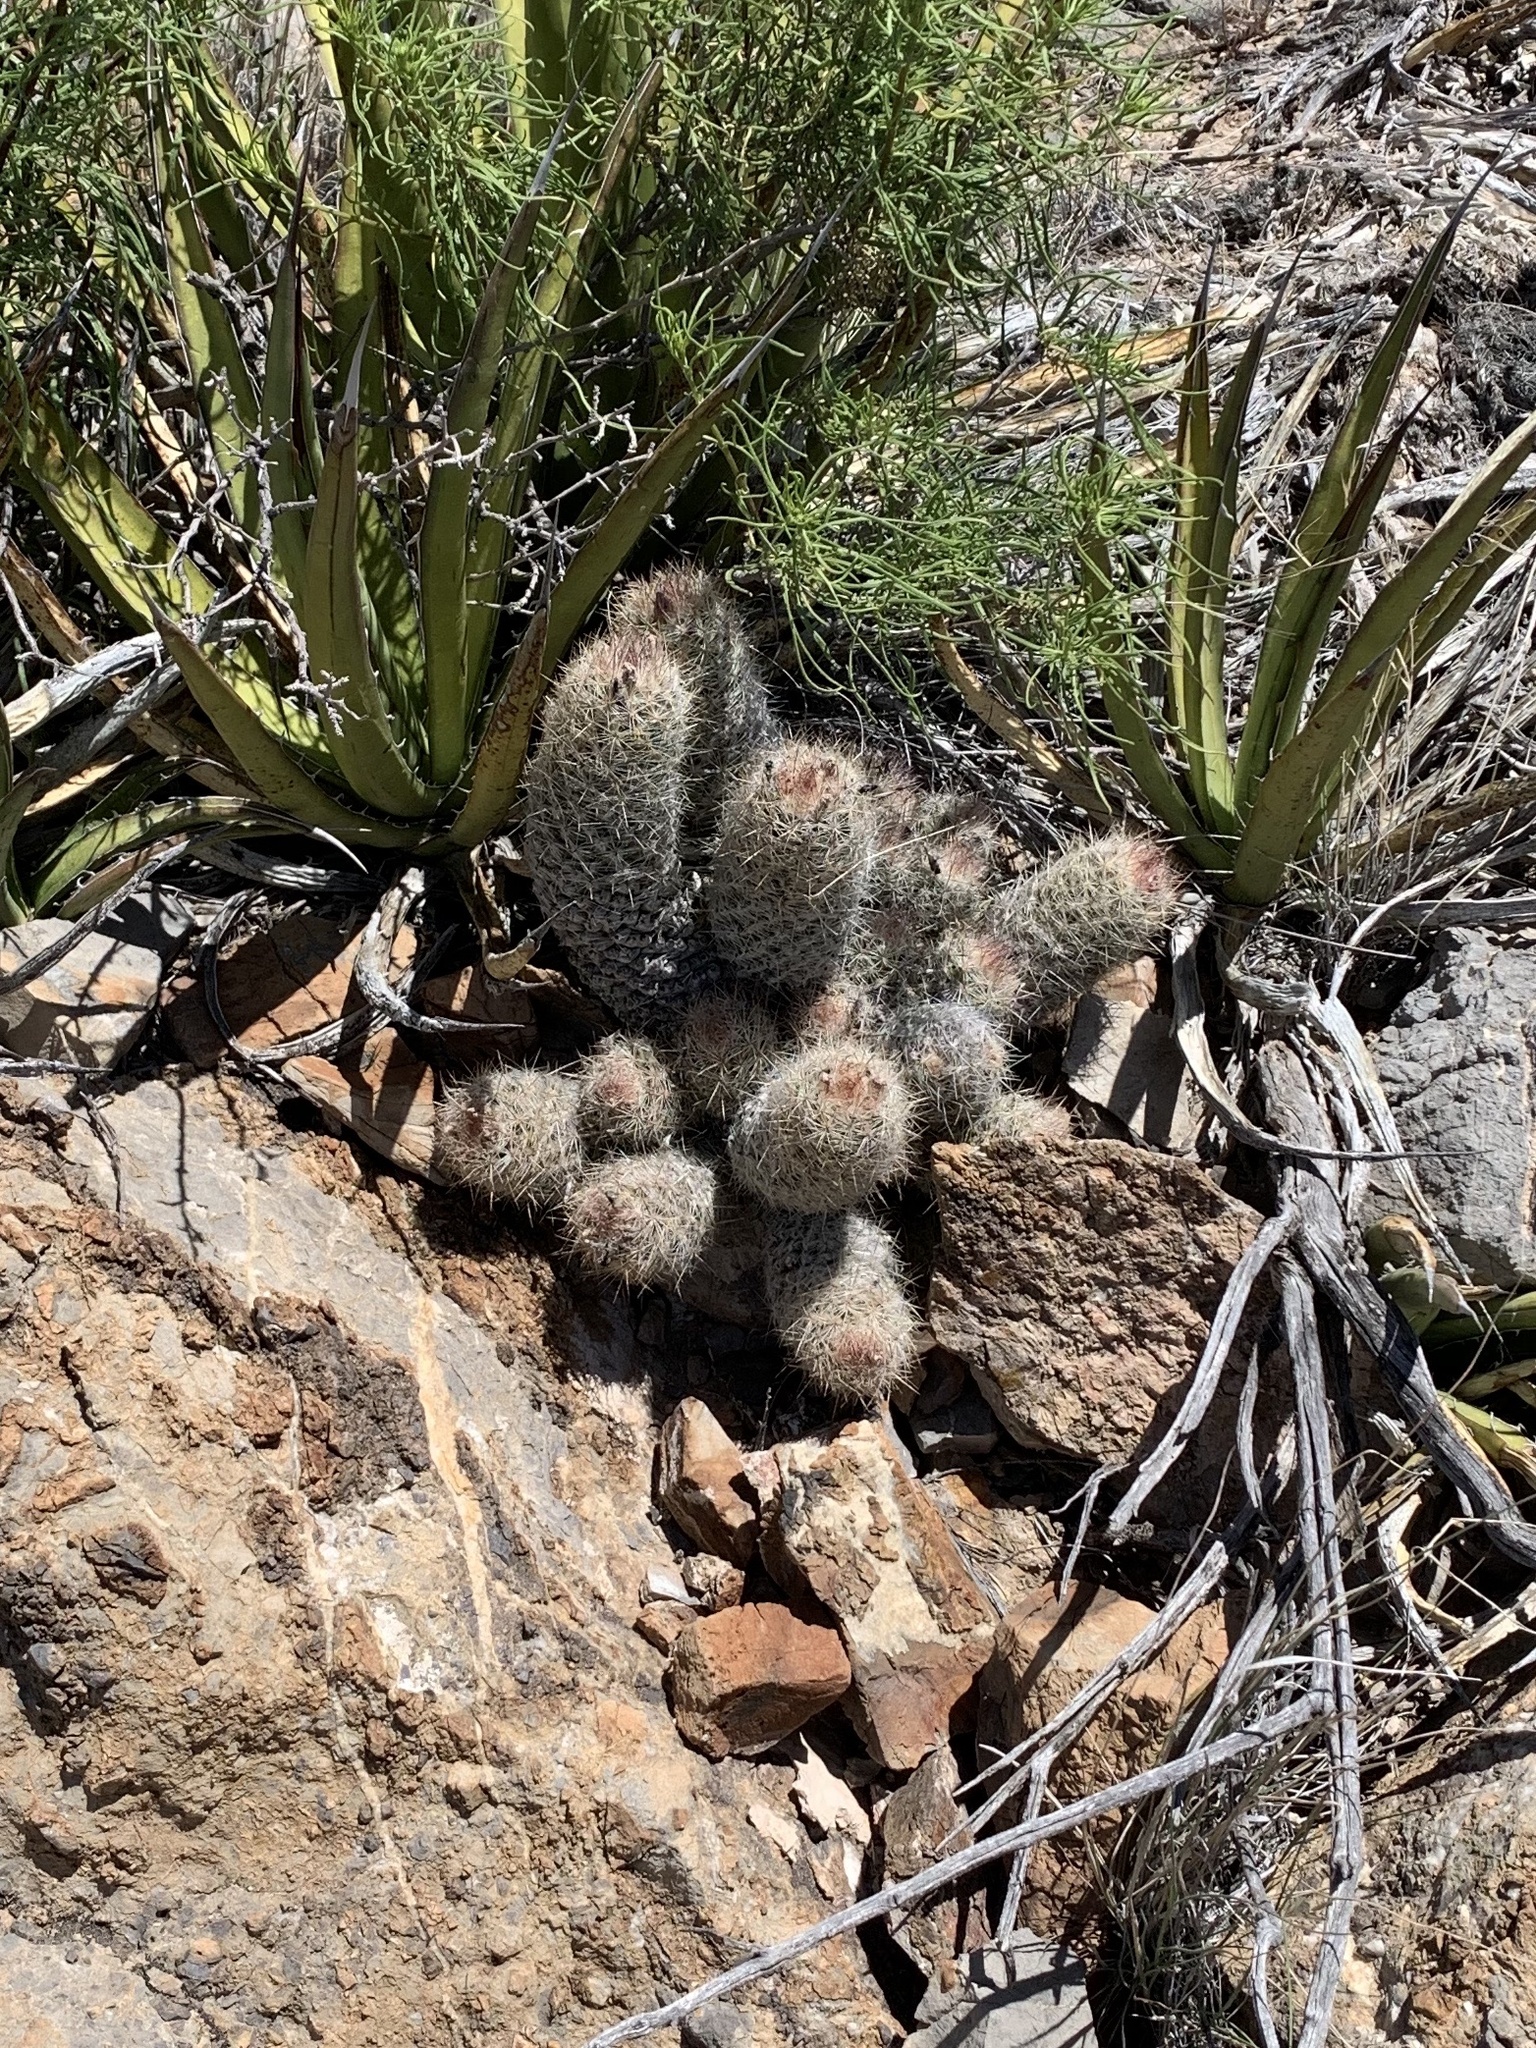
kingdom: Plantae
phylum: Tracheophyta
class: Magnoliopsida
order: Caryophyllales
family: Cactaceae
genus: Pelecyphora
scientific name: Pelecyphora tuberculosa
